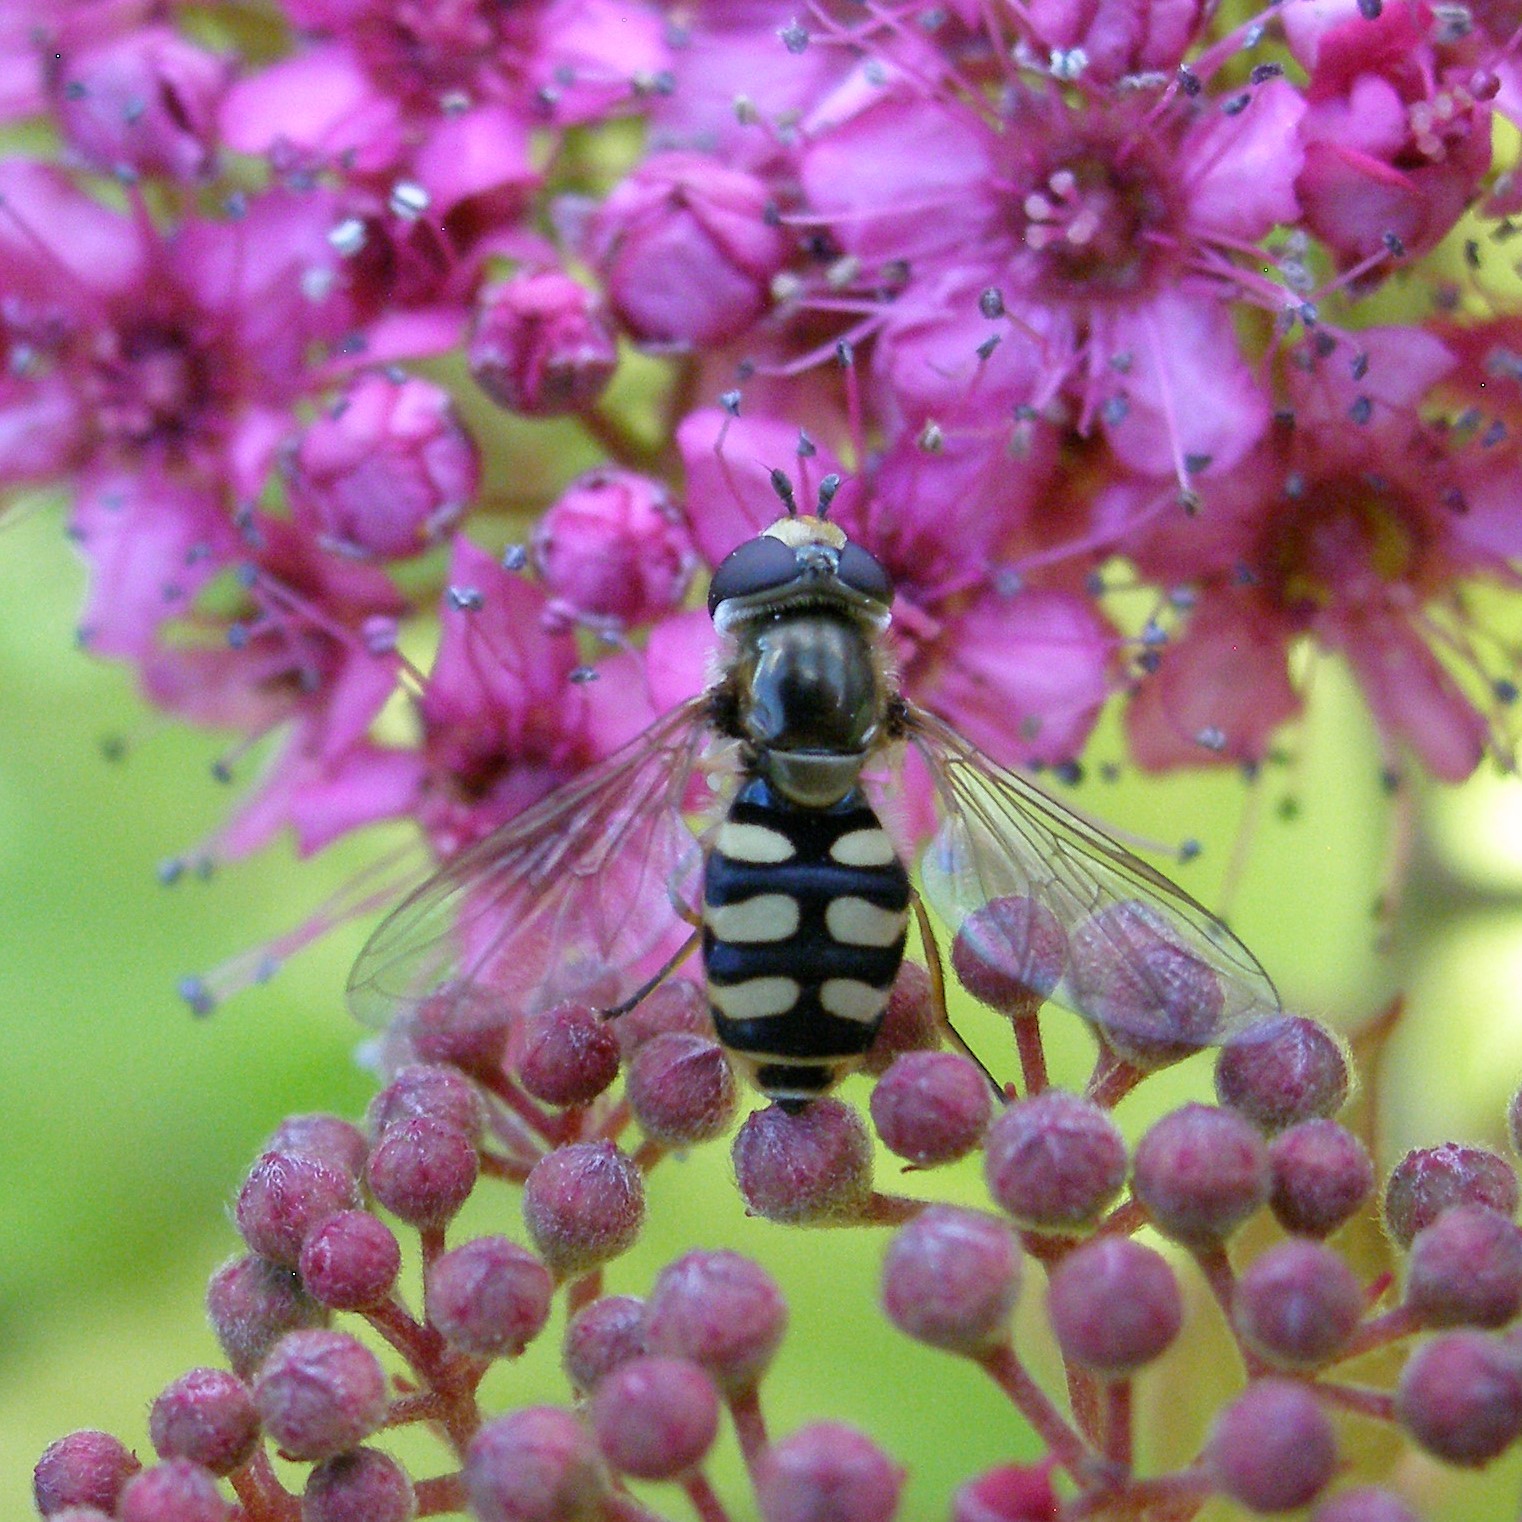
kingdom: Animalia
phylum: Arthropoda
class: Insecta
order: Diptera
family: Syrphidae
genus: Eupeodes
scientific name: Eupeodes corollae
